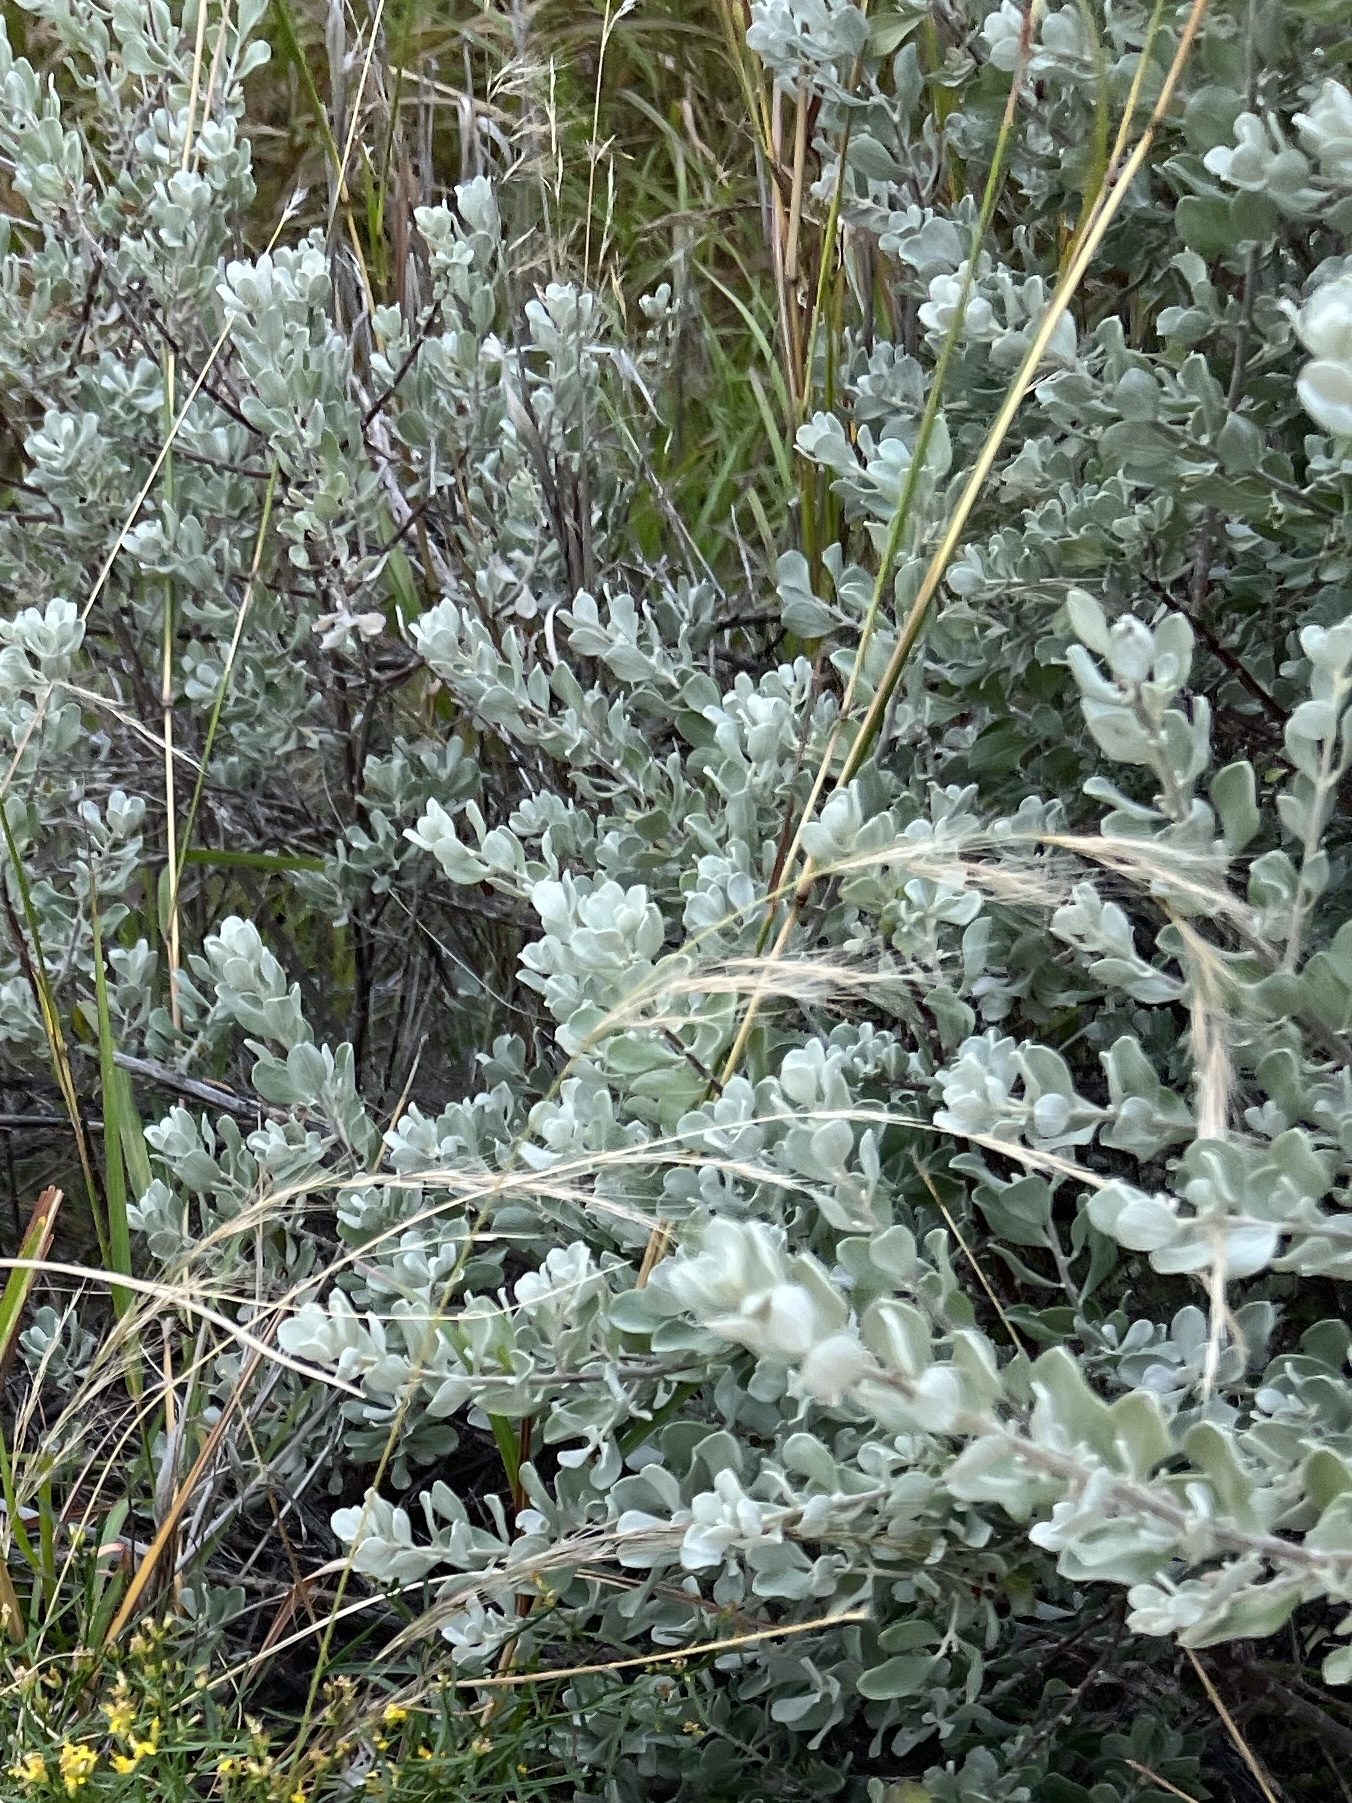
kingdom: Plantae
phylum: Tracheophyta
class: Magnoliopsida
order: Lamiales
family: Scrophulariaceae
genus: Leucophyllum
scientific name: Leucophyllum frutescens
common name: Texas silverleaf
